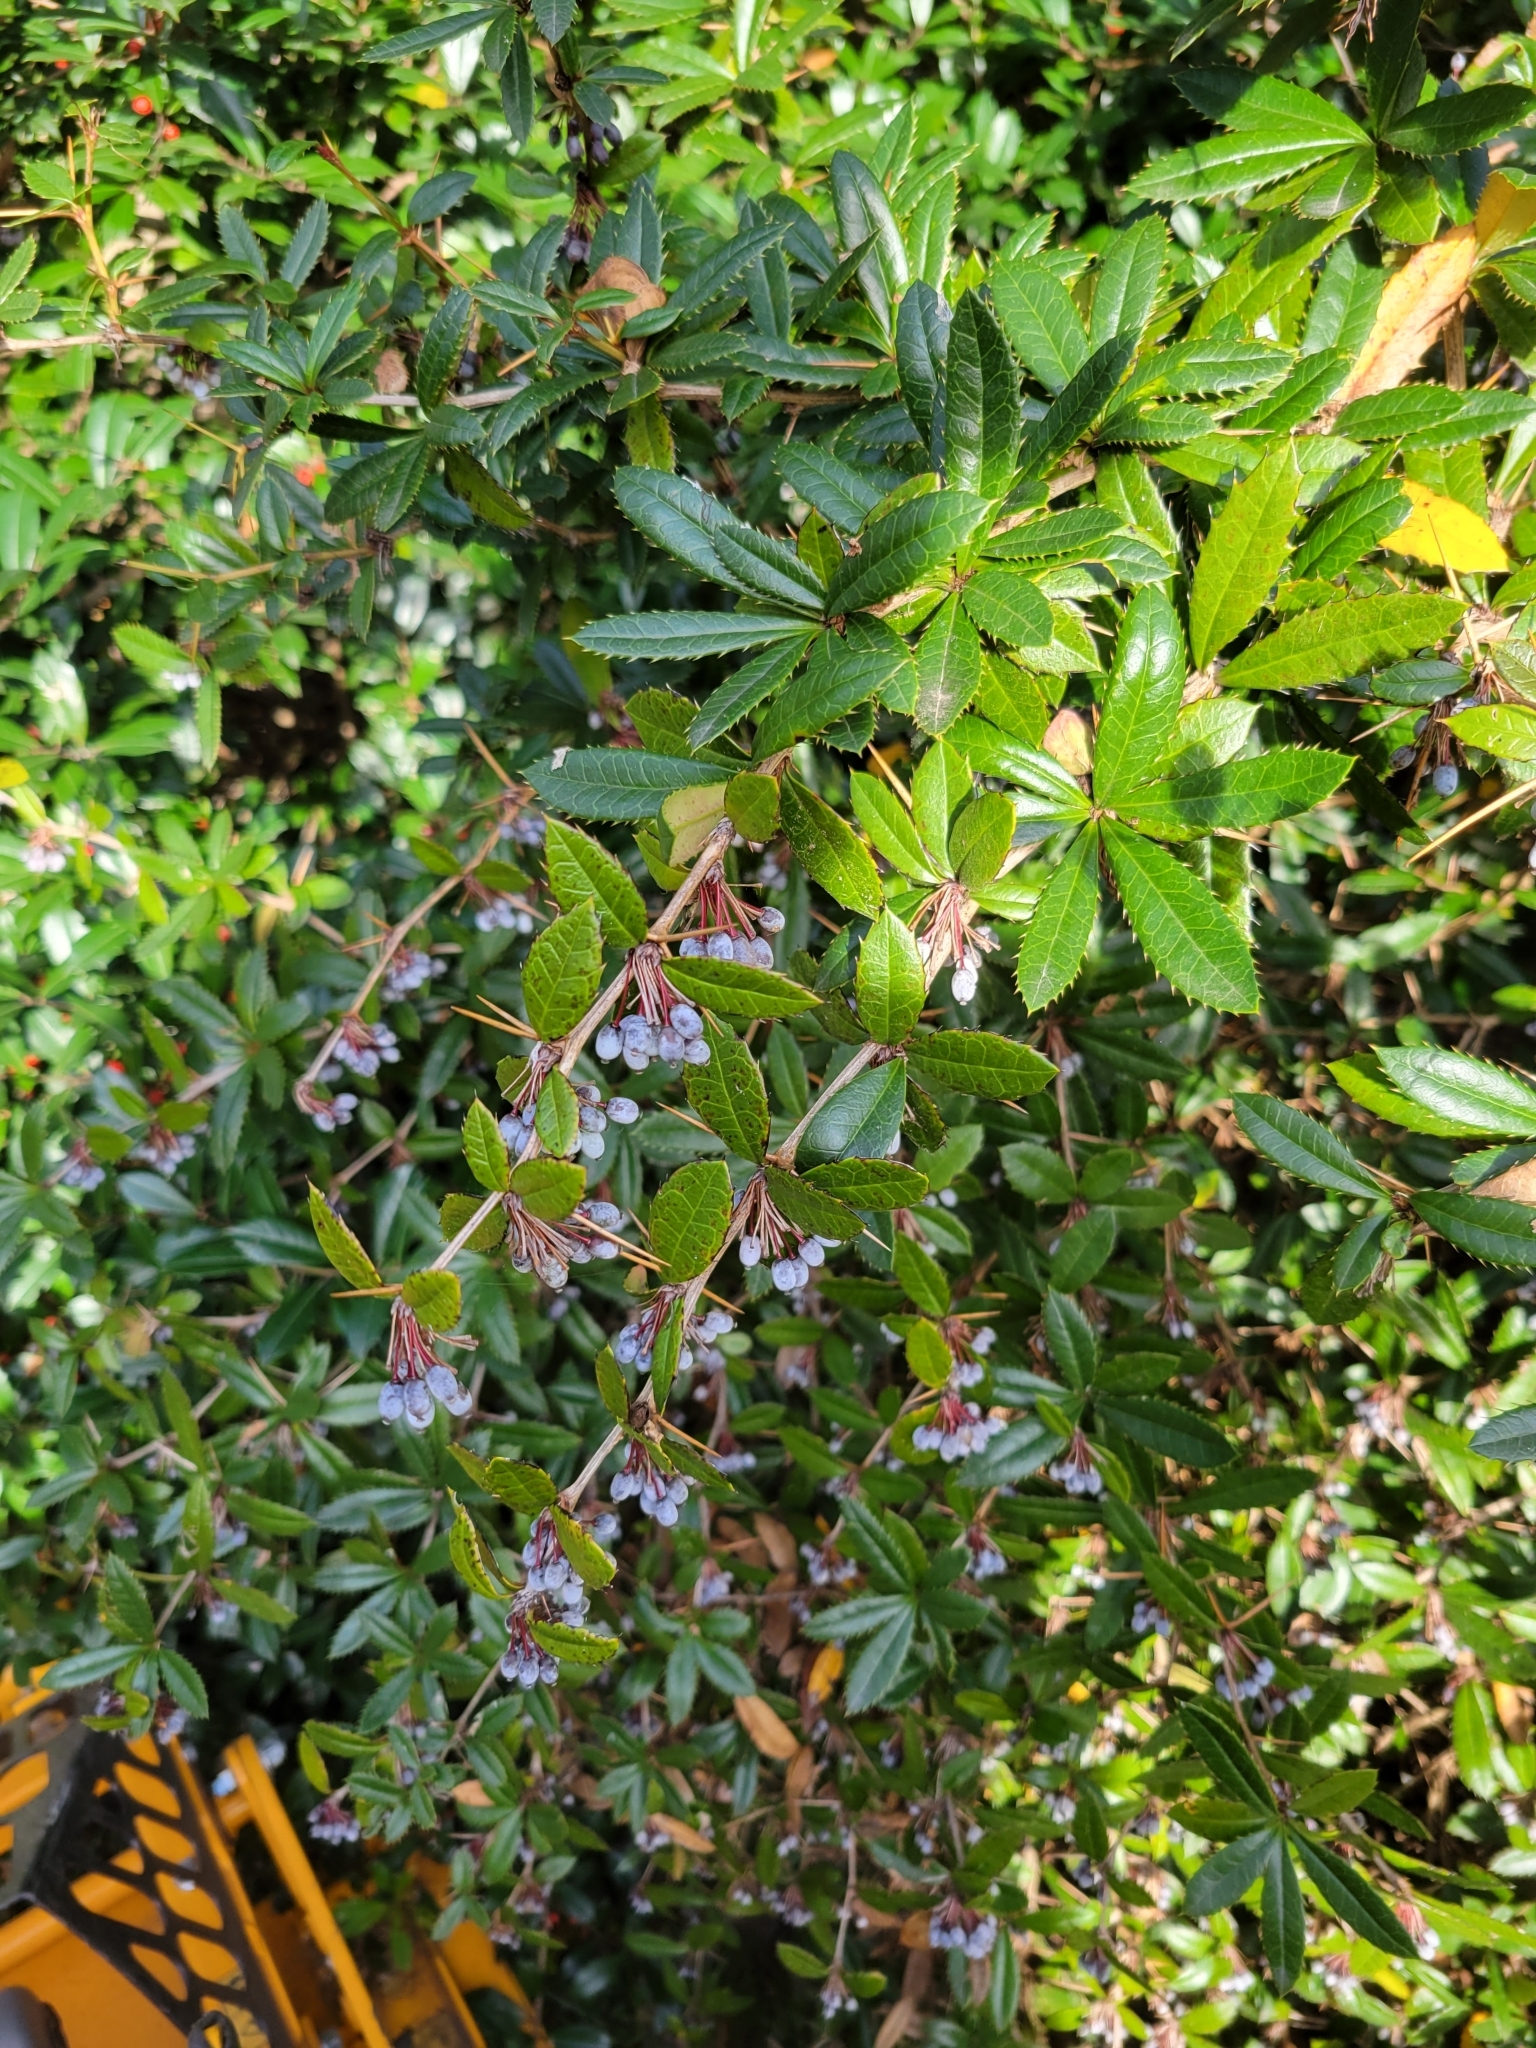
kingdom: Plantae
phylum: Tracheophyta
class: Magnoliopsida
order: Ranunculales
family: Berberidaceae
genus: Berberis
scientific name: Berberis julianae
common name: Wintergreen barberry
